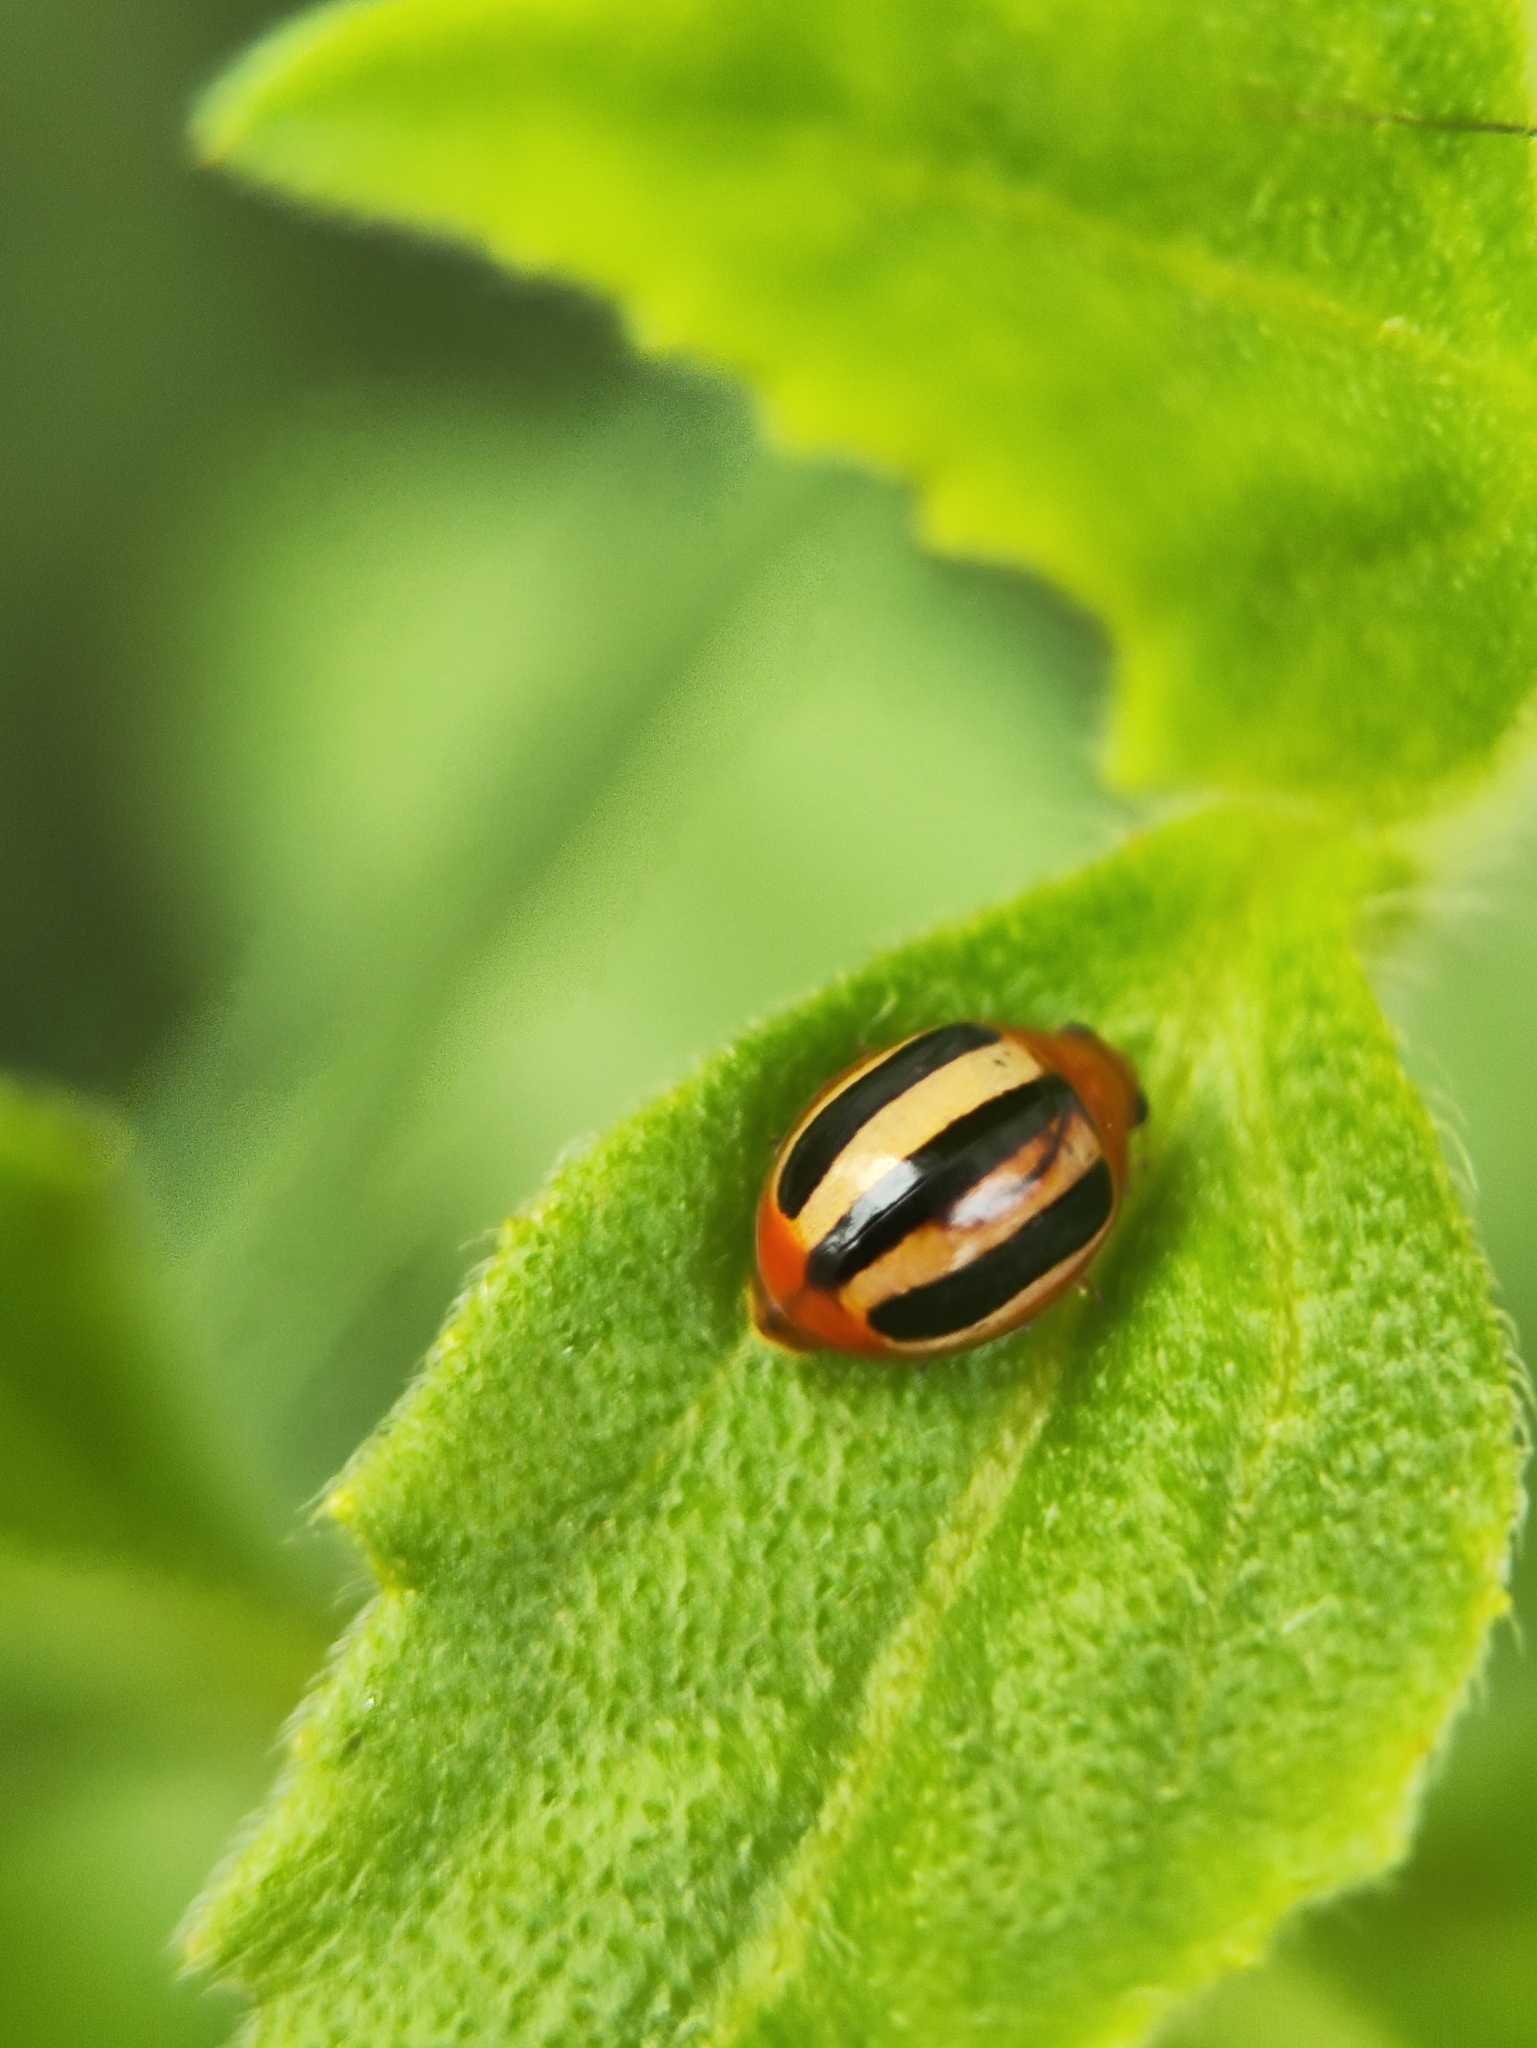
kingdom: Animalia
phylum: Arthropoda
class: Insecta
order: Coleoptera
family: Coccinellidae
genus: Brumoides
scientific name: Brumoides suturalis
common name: Threestriped lady beetle
